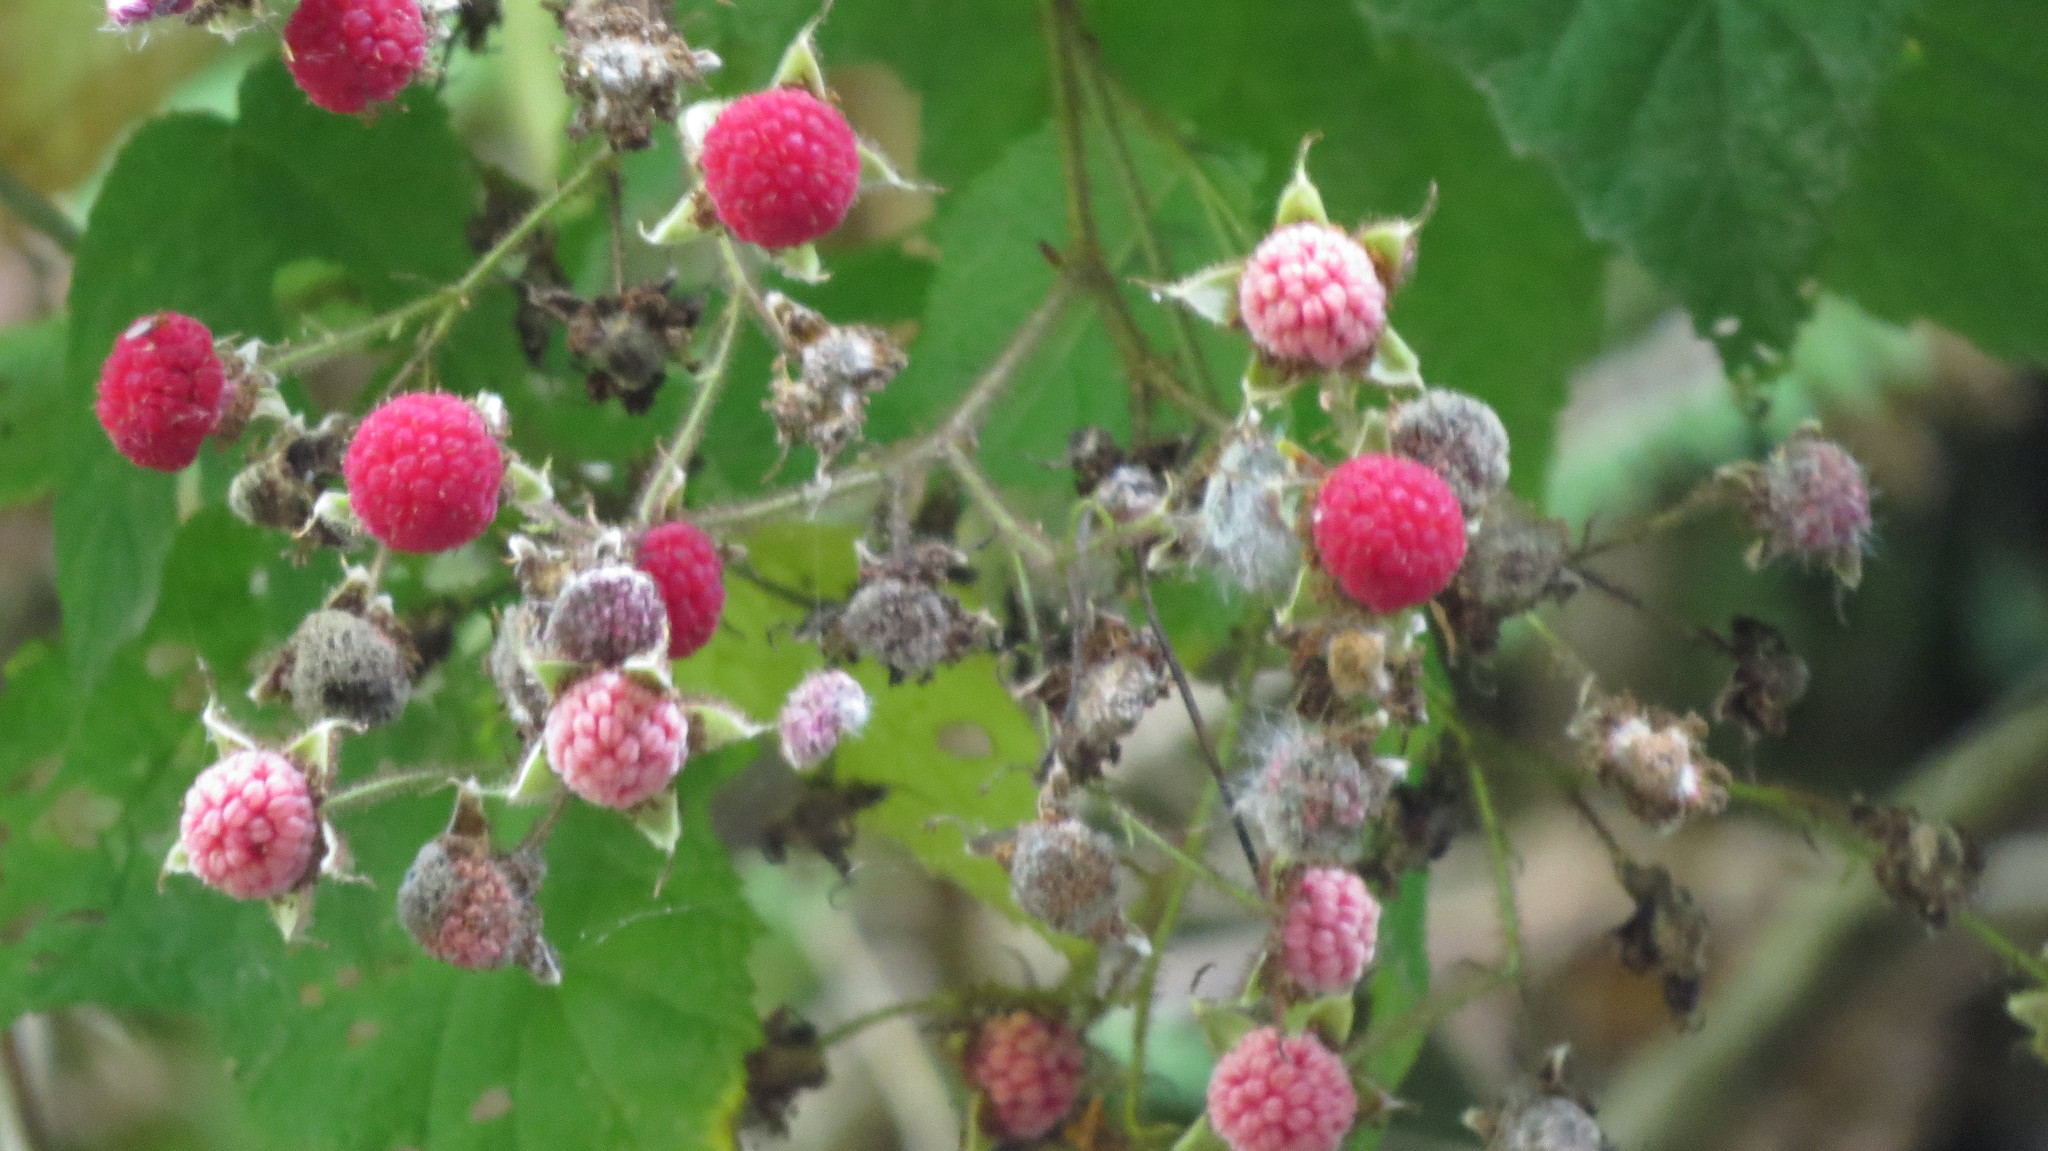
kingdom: Plantae
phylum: Tracheophyta
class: Magnoliopsida
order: Rosales
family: Rosaceae
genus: Rubus
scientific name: Rubus odoratus
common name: Purple-flowered raspberry
